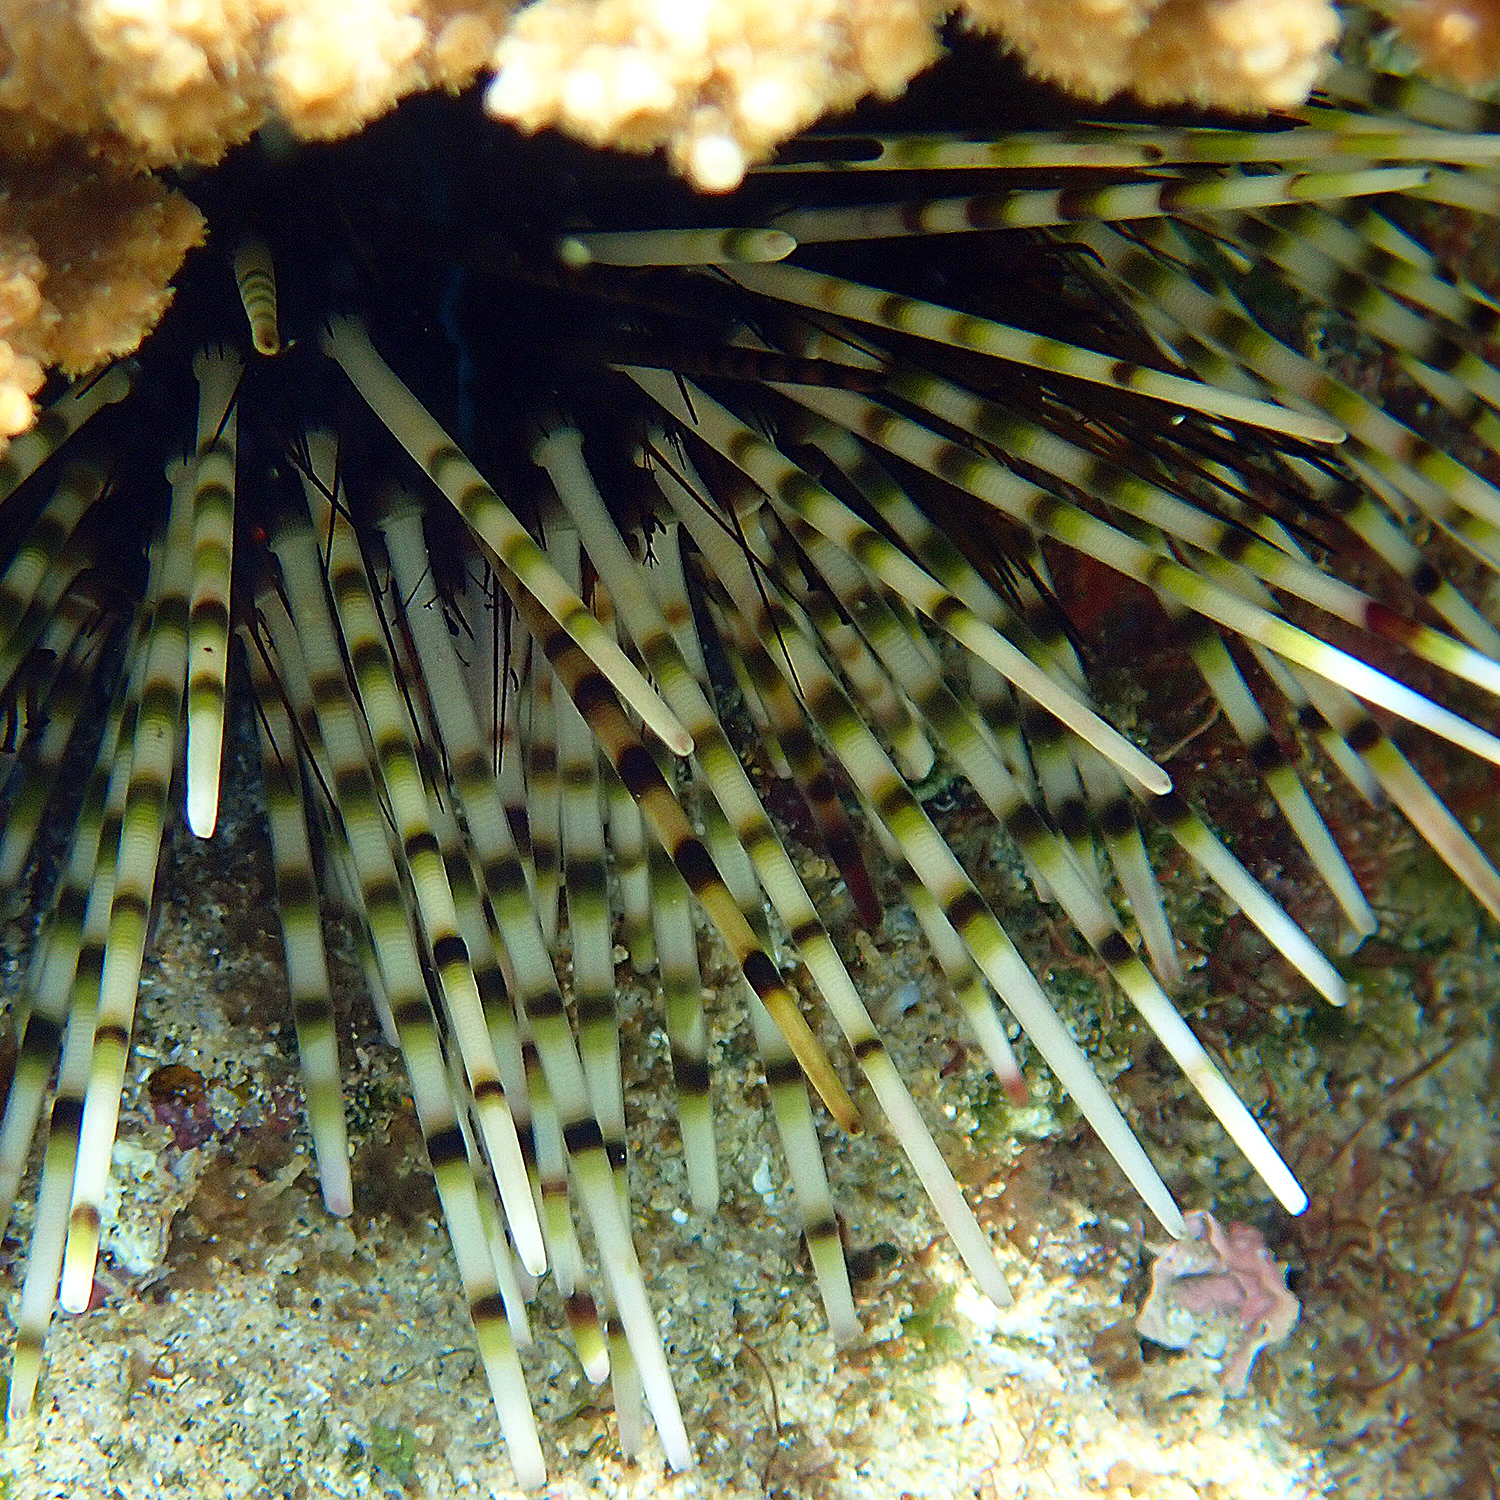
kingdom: Animalia
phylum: Echinodermata
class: Echinoidea
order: Diadematoida
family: Diadematidae
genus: Echinothrix
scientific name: Echinothrix calamaris
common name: Banded sea urchin
